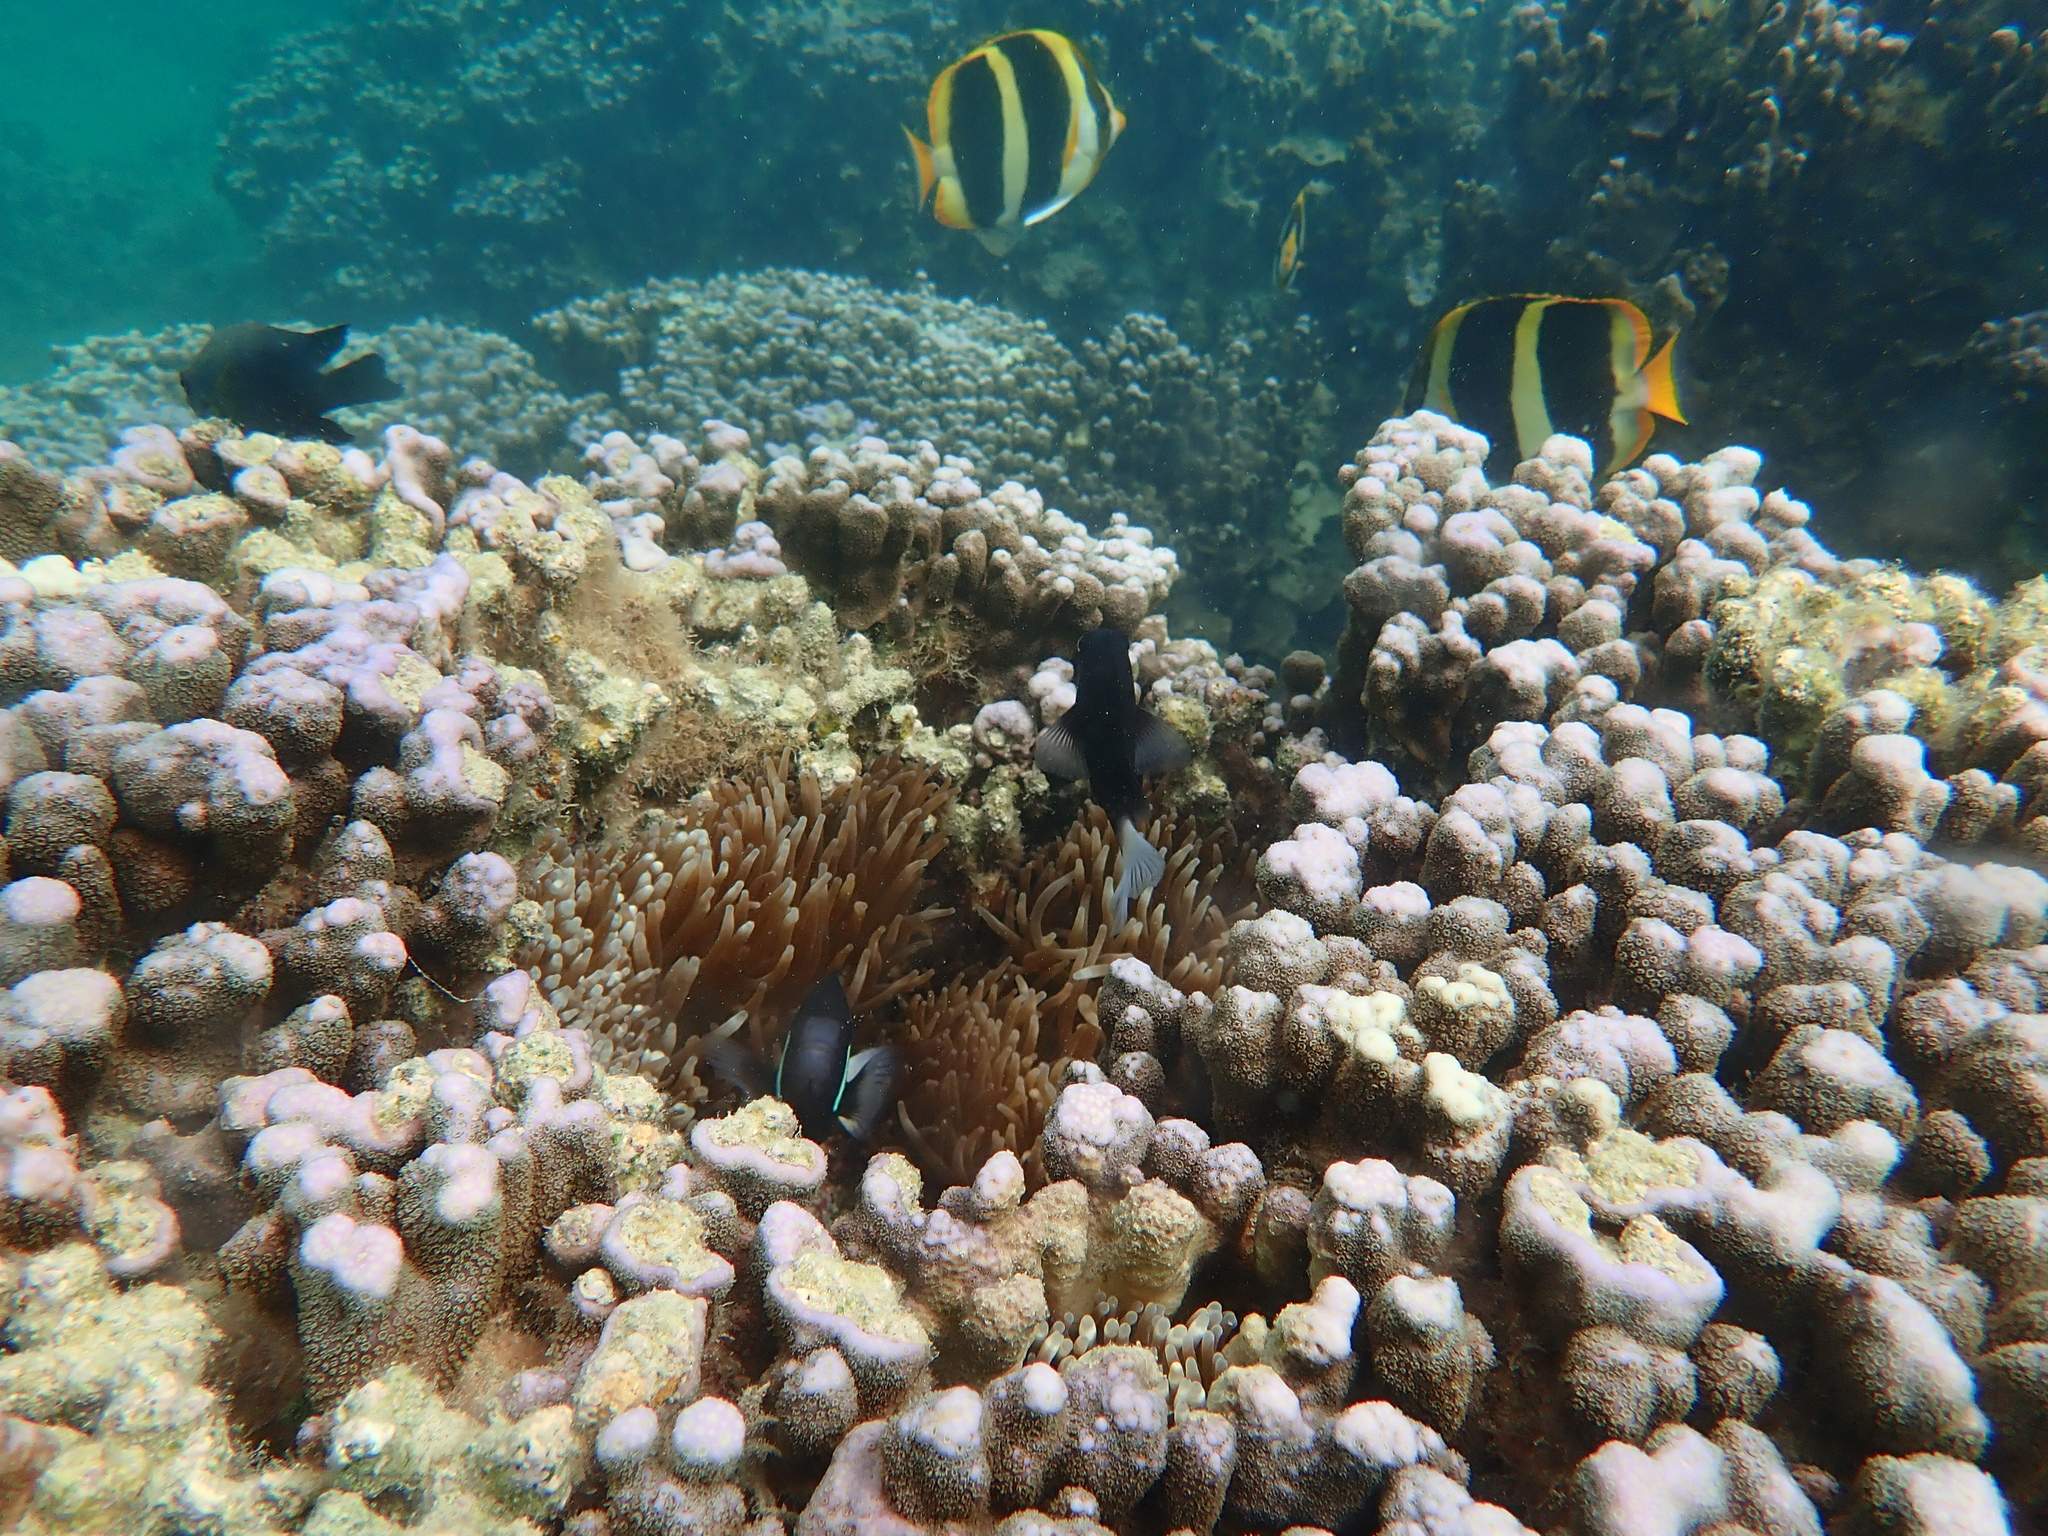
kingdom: Animalia
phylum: Chordata
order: Perciformes
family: Chaetodontidae
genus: Chaetodon
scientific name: Chaetodon tricinctus
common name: Three-striped butterflyfish
